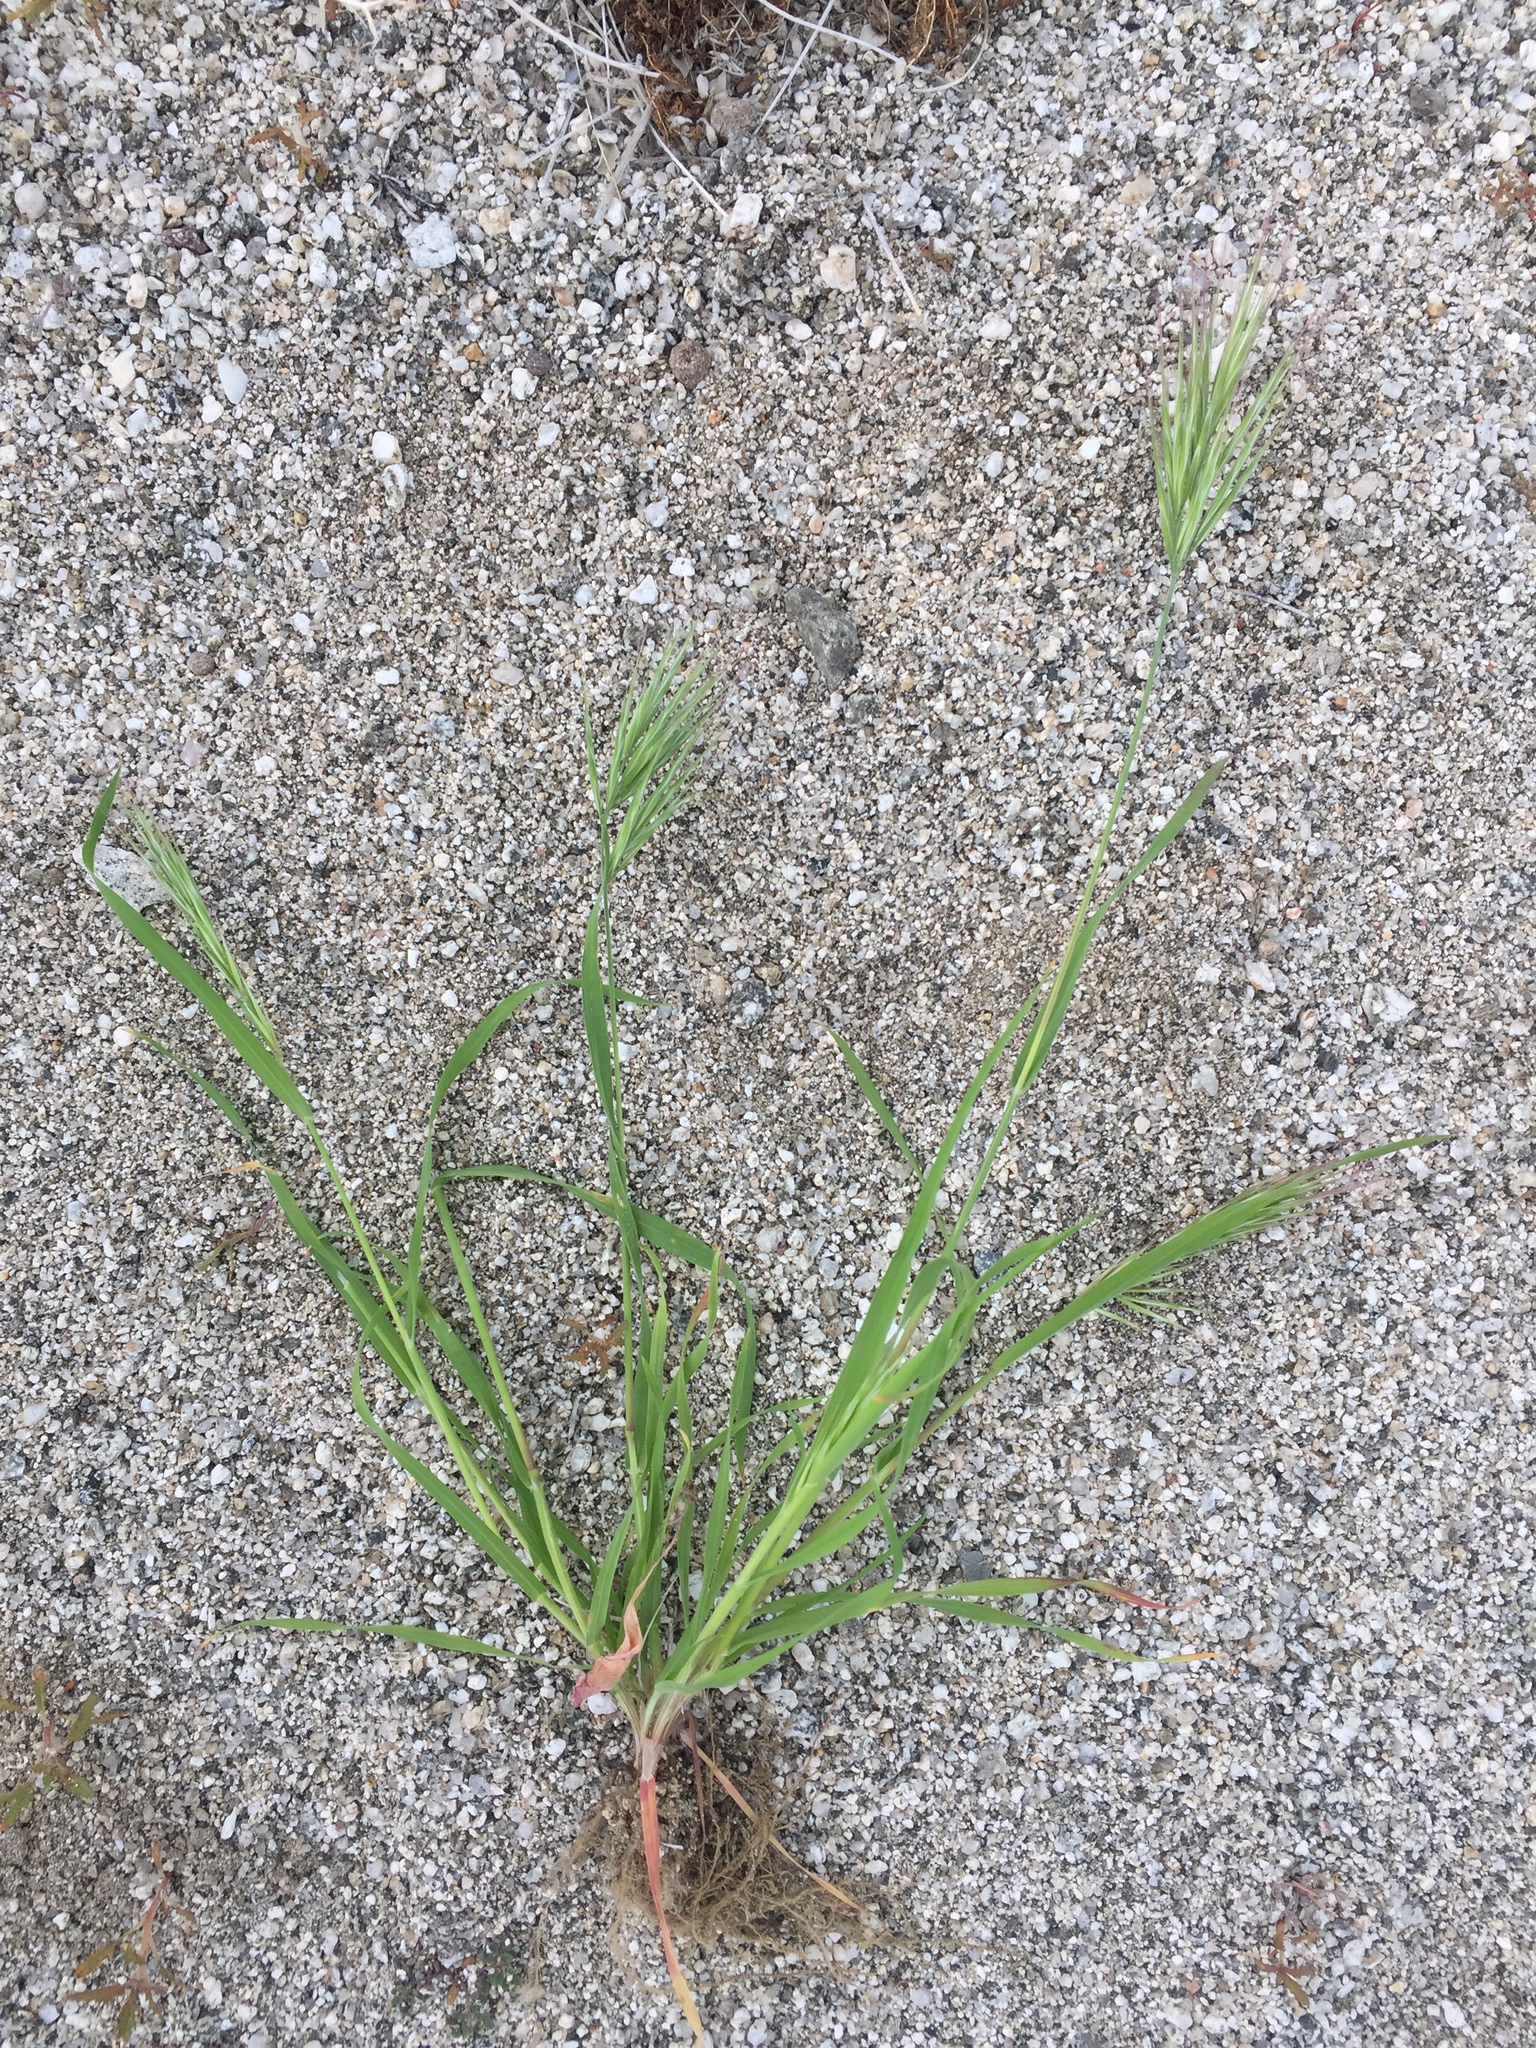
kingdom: Plantae
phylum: Tracheophyta
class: Liliopsida
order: Poales
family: Poaceae
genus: Bromus
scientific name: Bromus rubens
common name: Red brome
